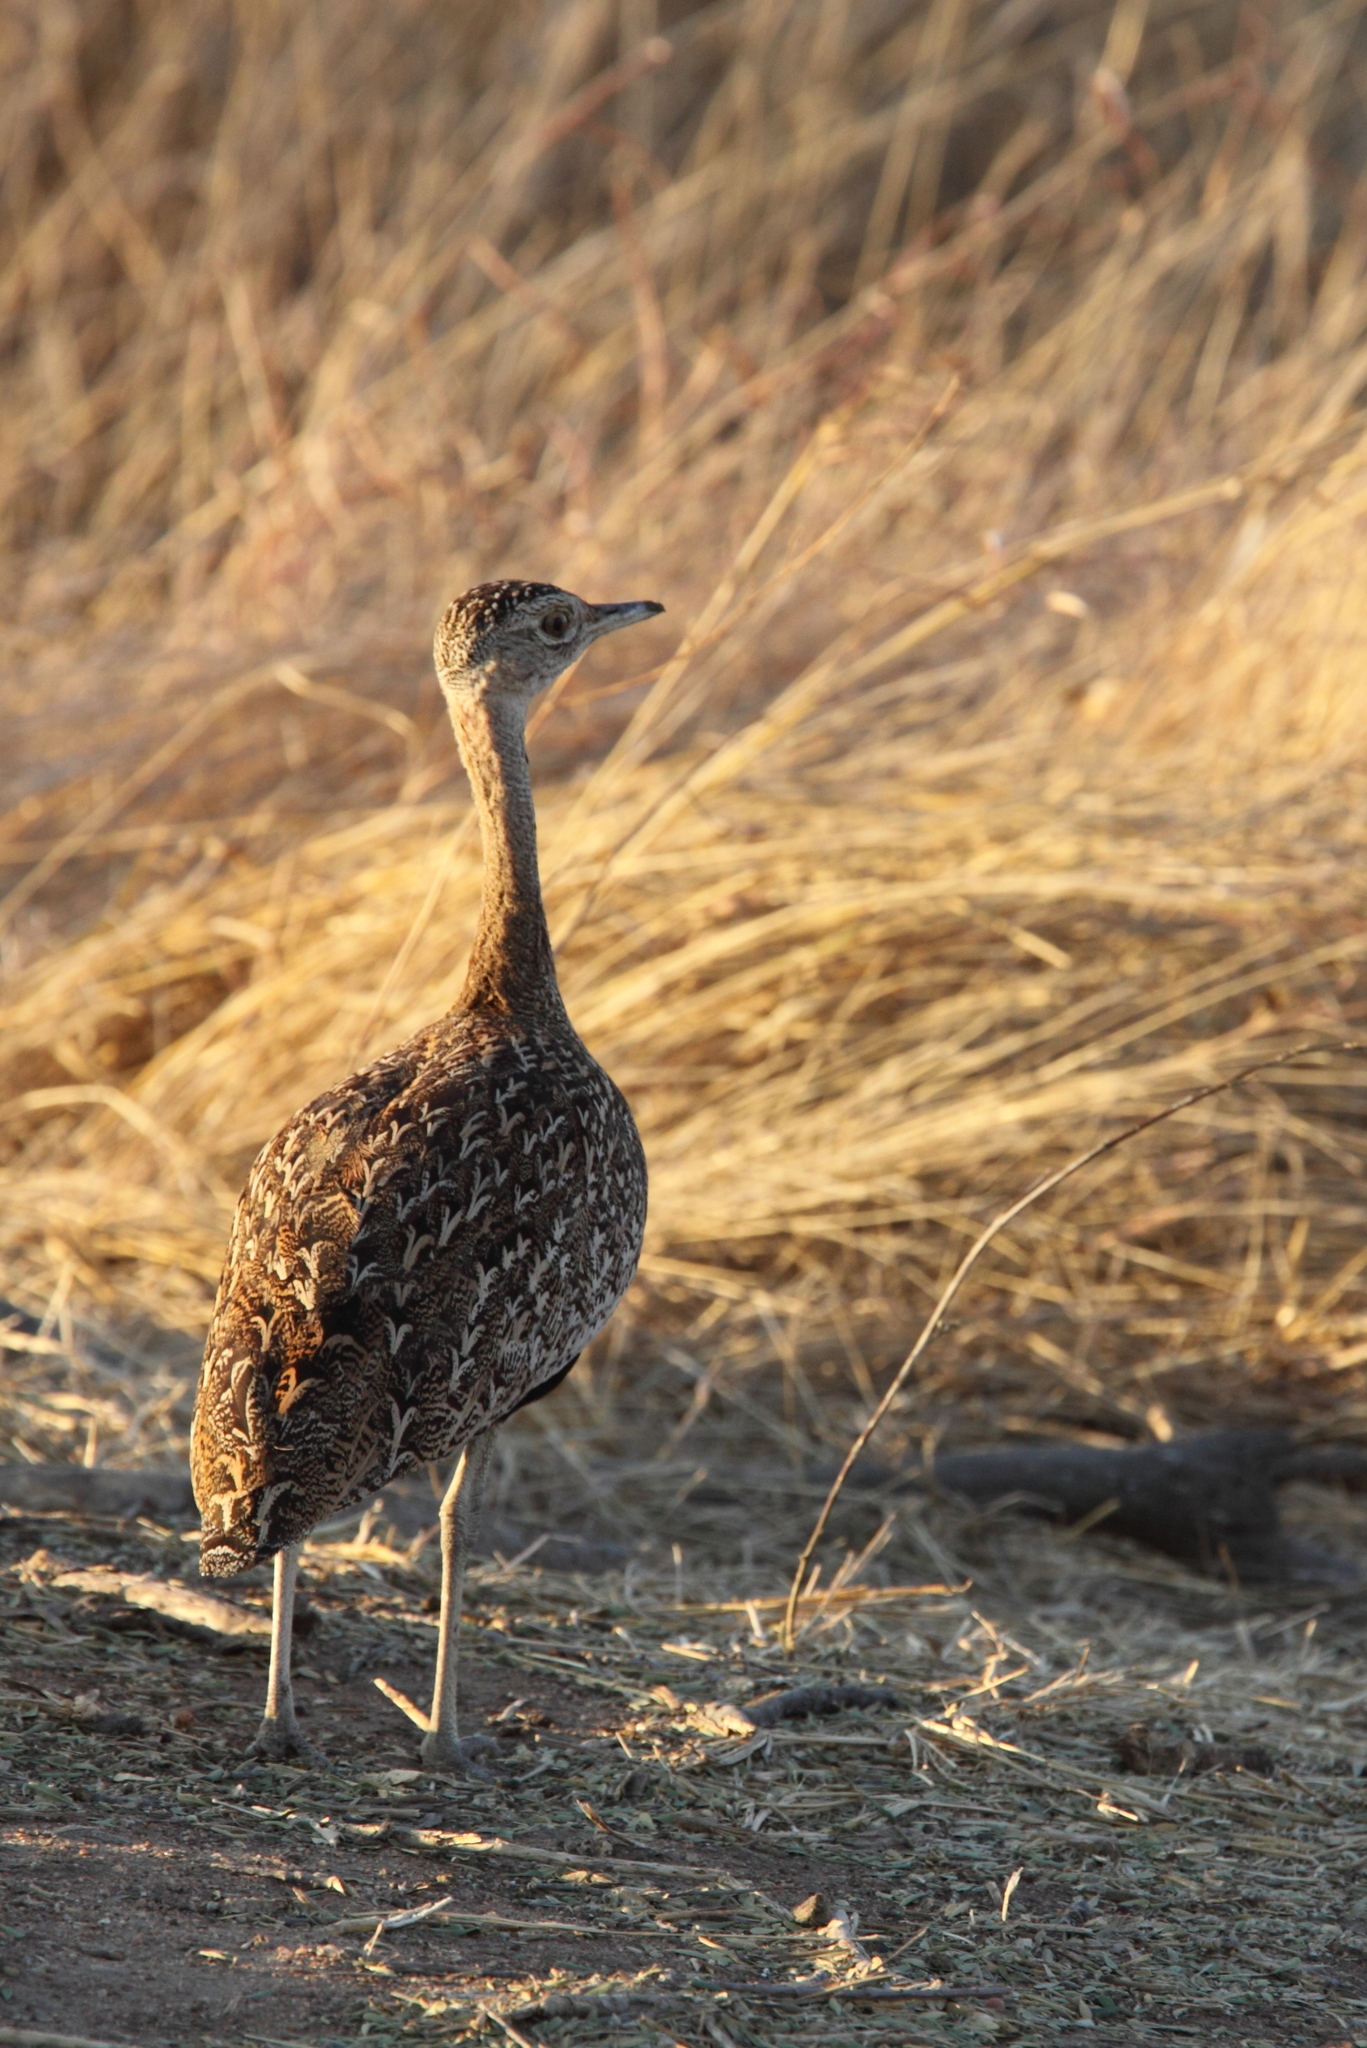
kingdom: Animalia
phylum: Chordata
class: Aves
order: Otidiformes
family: Otididae
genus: Lophotis
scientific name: Lophotis ruficrista
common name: Red-crested korhaan
